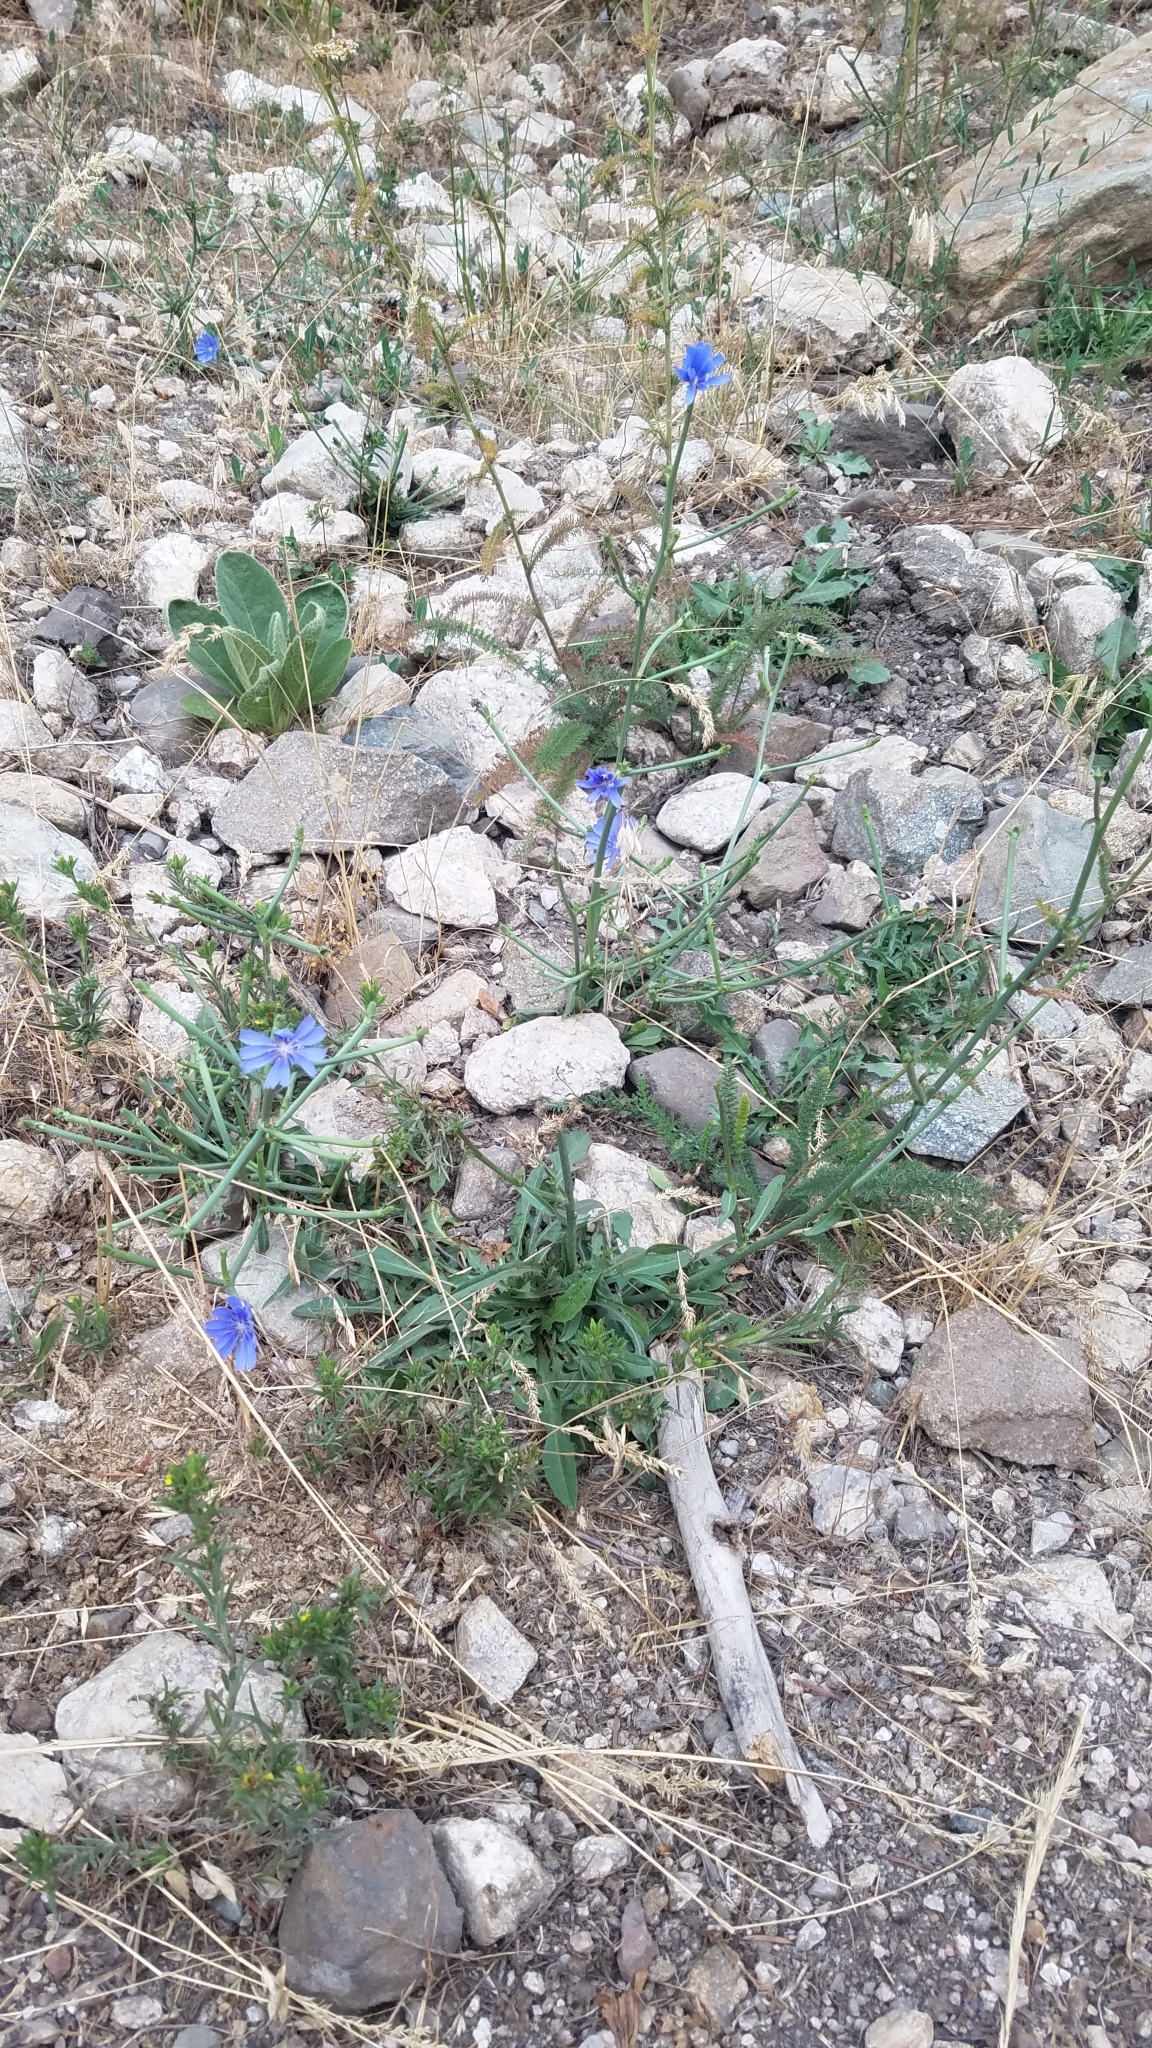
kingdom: Plantae
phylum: Tracheophyta
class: Magnoliopsida
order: Asterales
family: Asteraceae
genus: Cichorium
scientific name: Cichorium intybus
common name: Chicory
